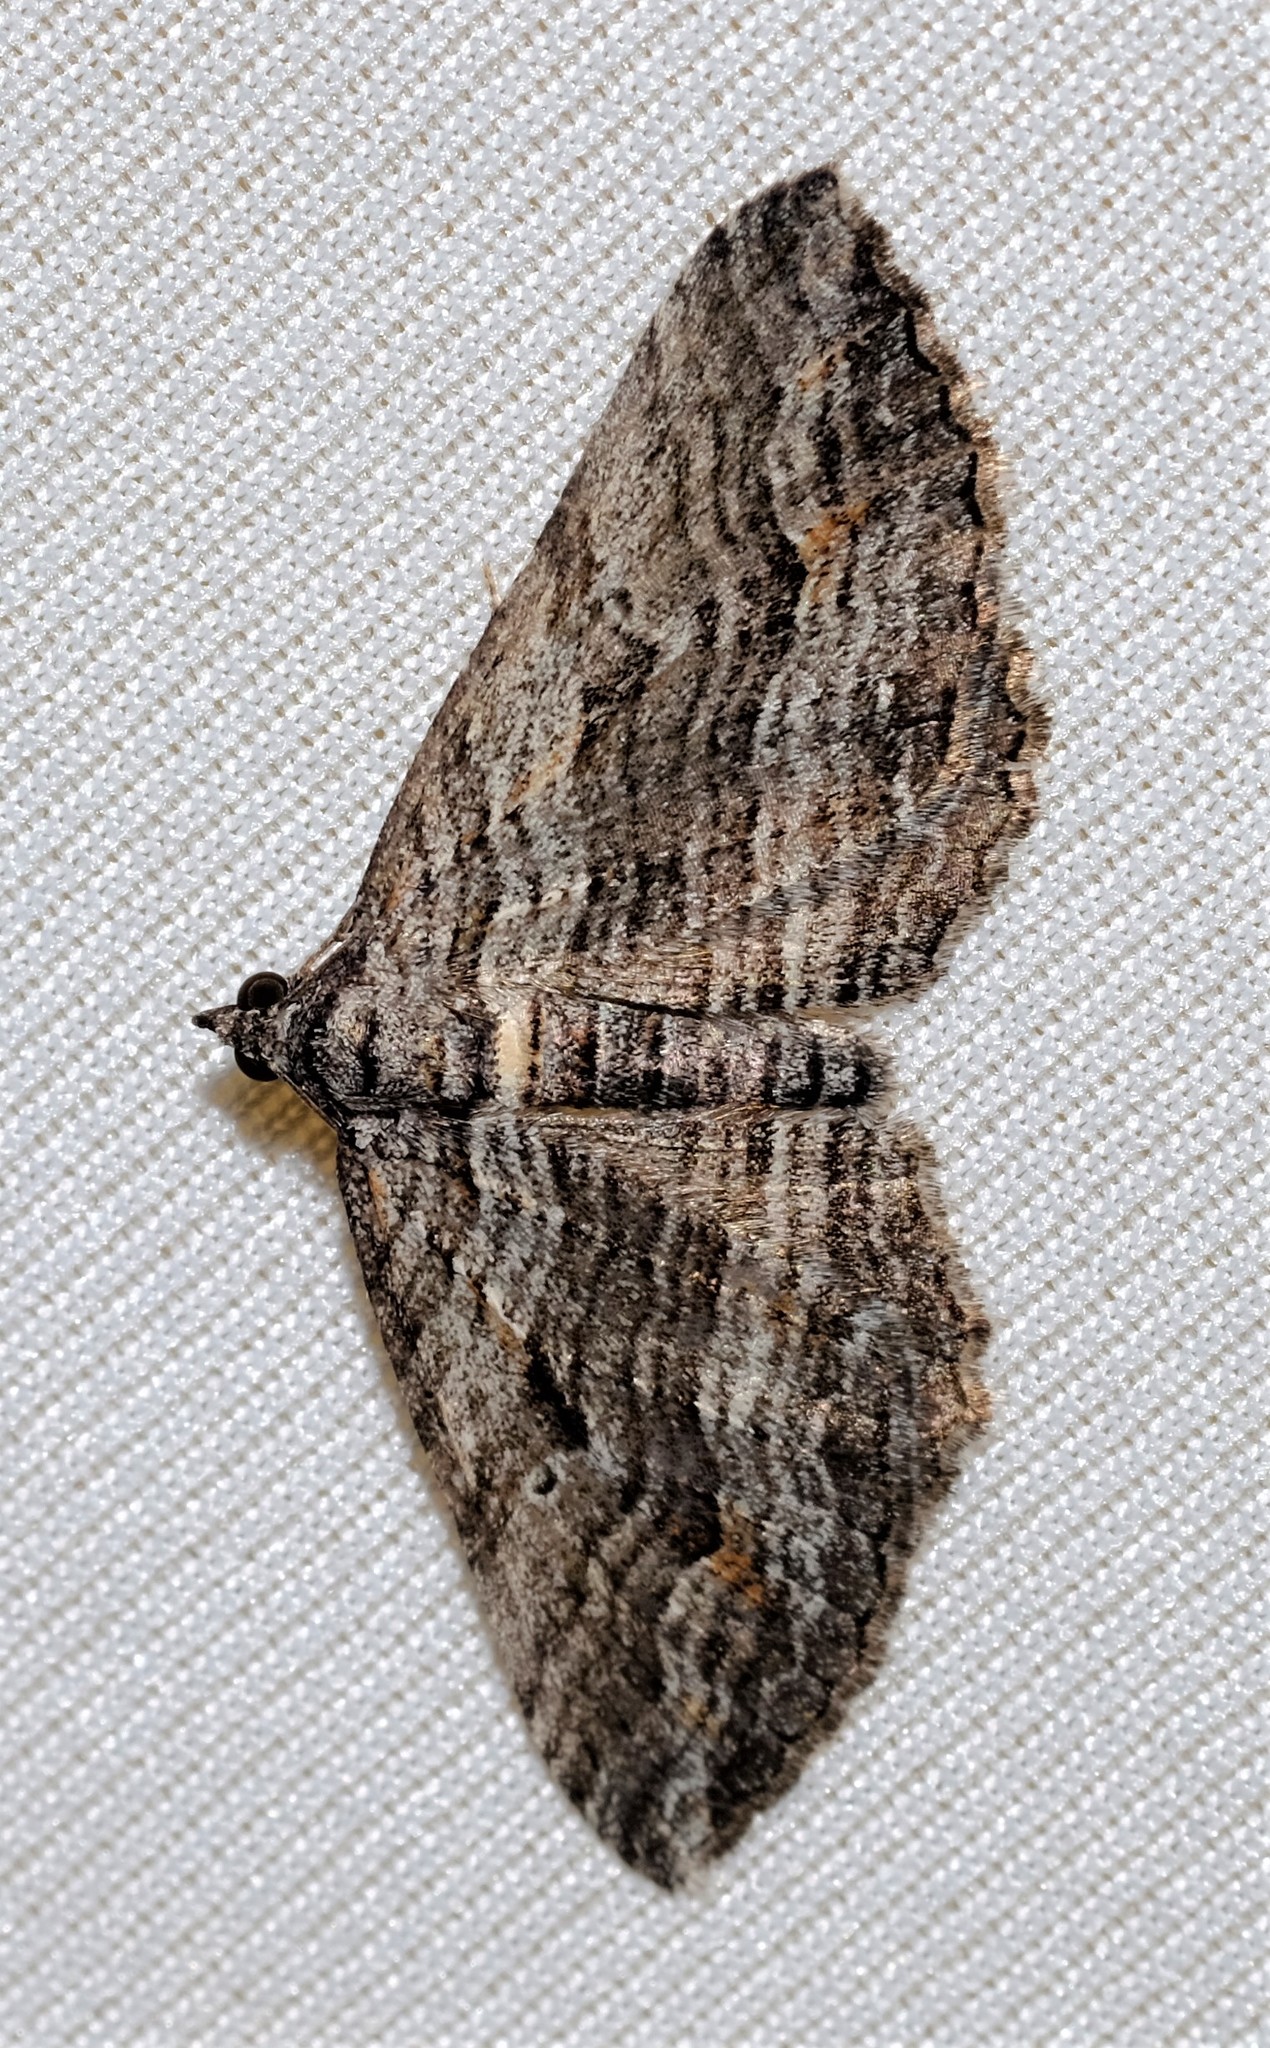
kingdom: Animalia
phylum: Arthropoda
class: Insecta
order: Lepidoptera
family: Geometridae
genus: Chrysolarentia
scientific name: Chrysolarentia severata
